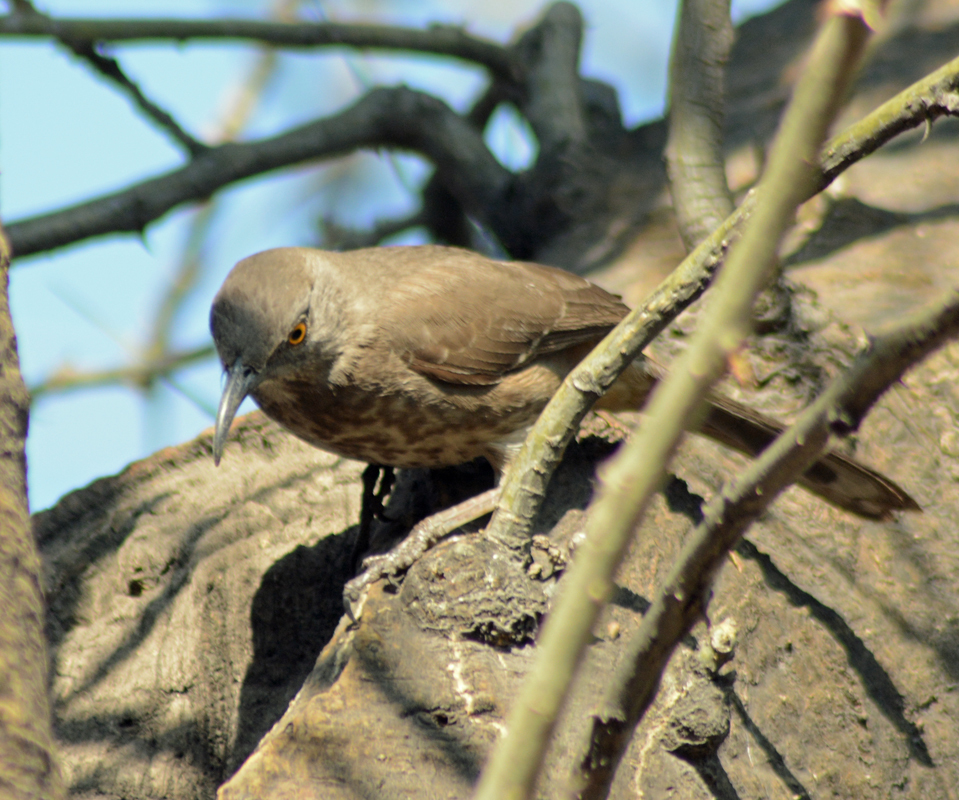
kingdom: Animalia
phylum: Chordata
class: Aves
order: Passeriformes
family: Mimidae
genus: Toxostoma
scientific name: Toxostoma curvirostre
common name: Curve-billed thrasher
